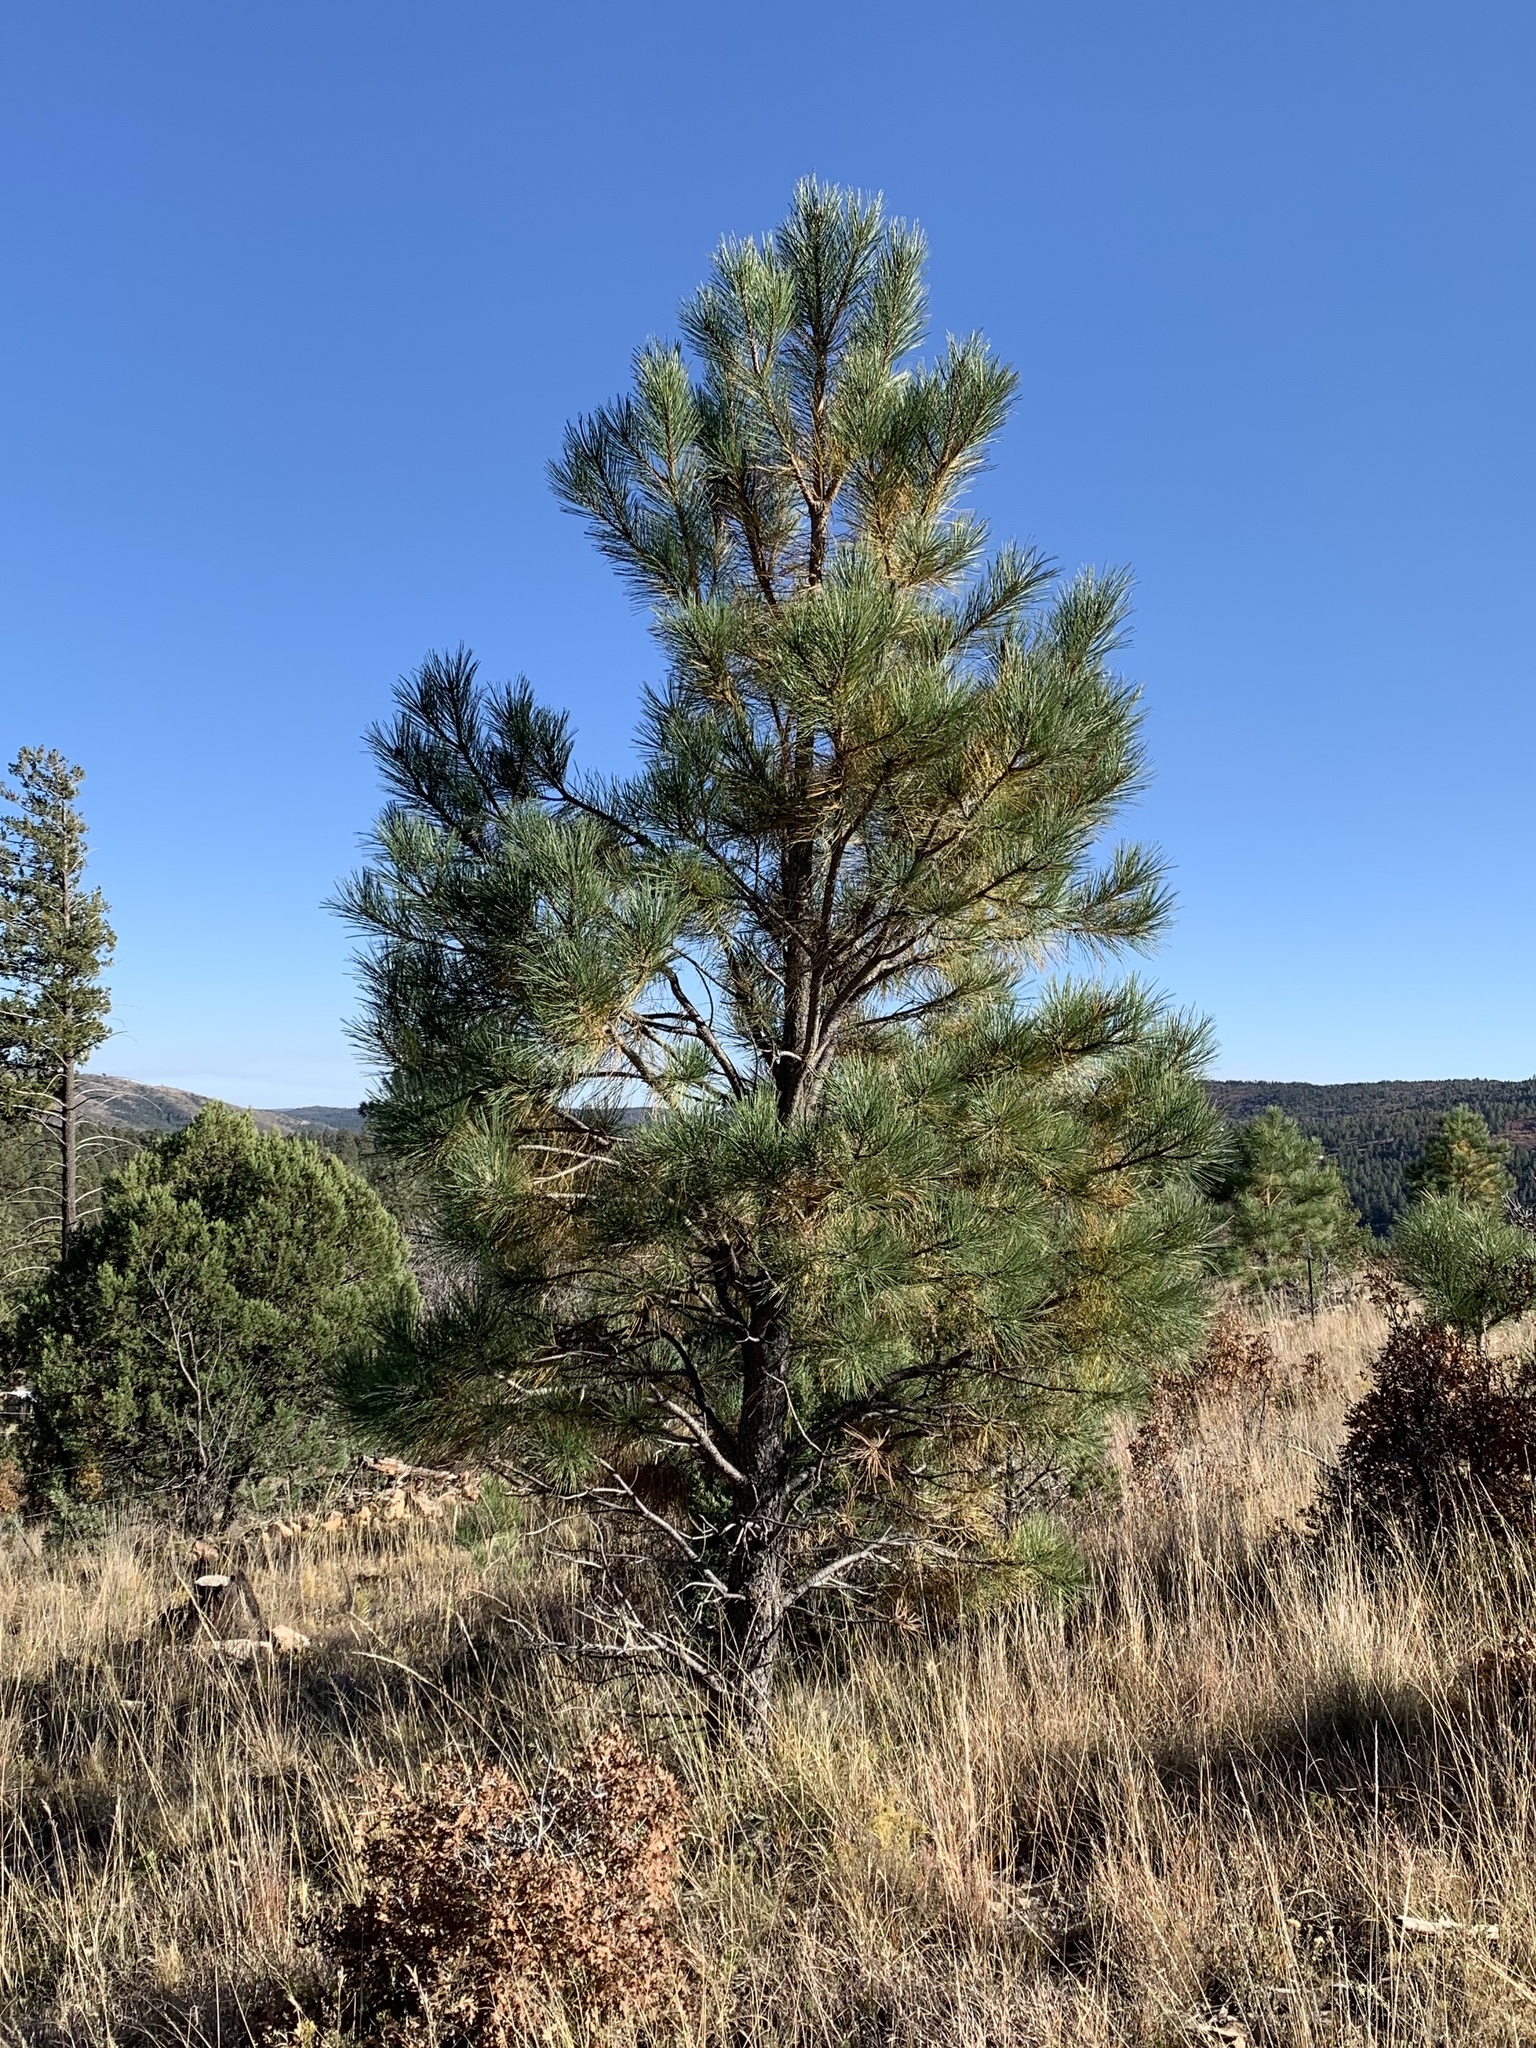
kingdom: Plantae
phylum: Tracheophyta
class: Pinopsida
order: Pinales
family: Pinaceae
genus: Pinus
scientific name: Pinus ponderosa
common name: Western yellow-pine
